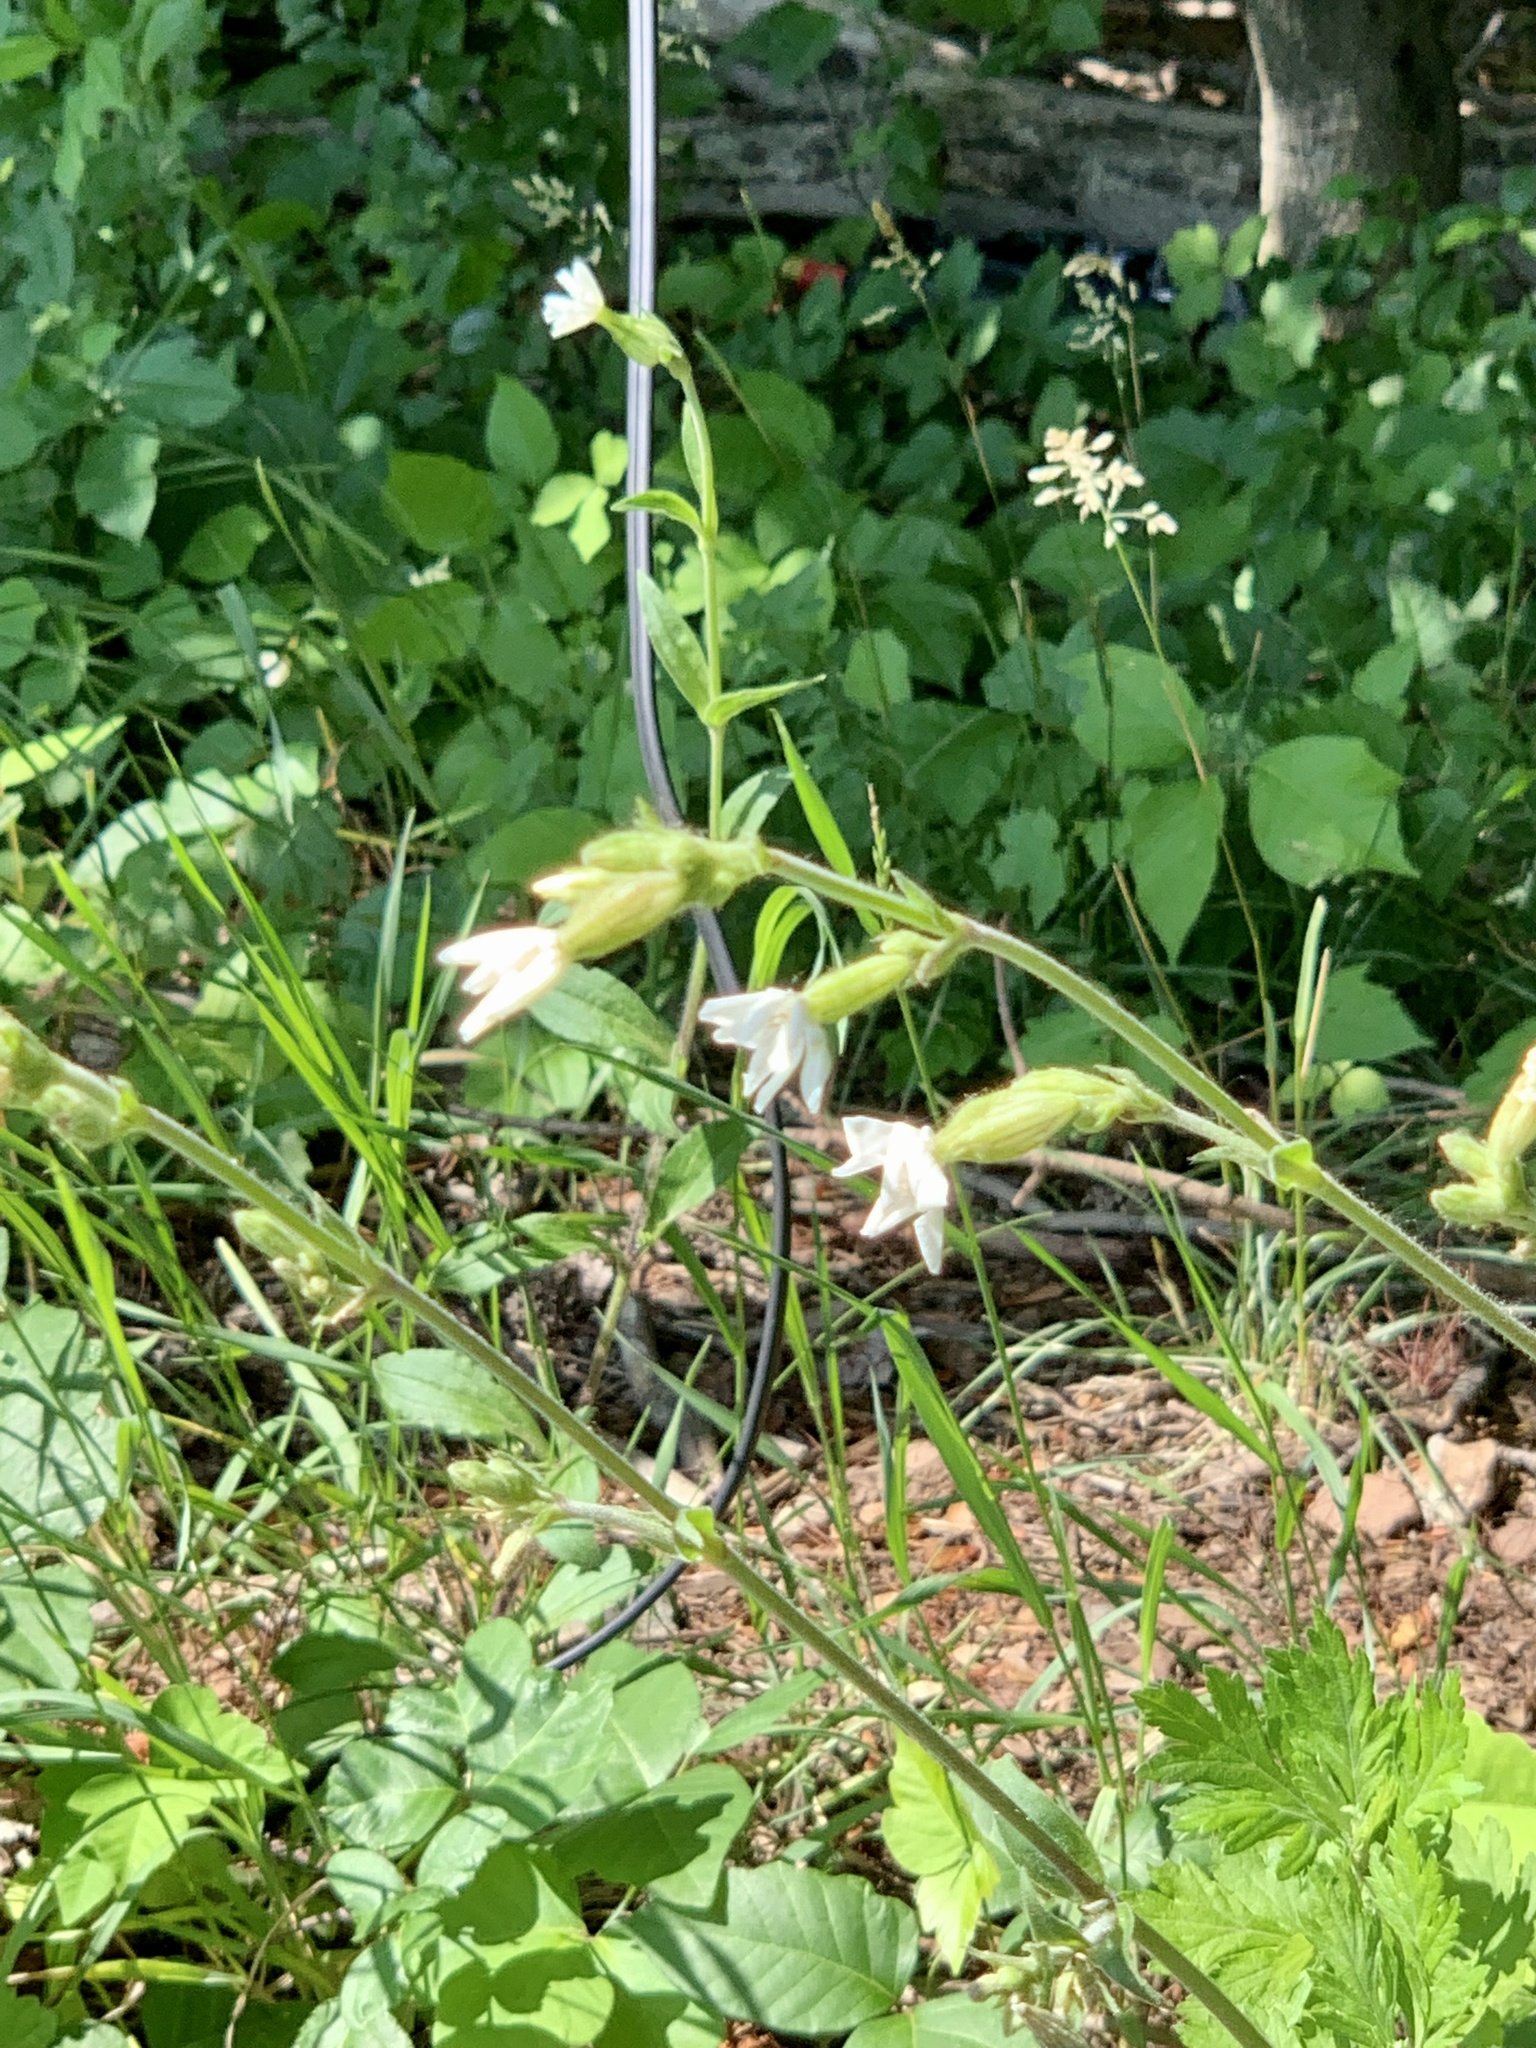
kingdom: Plantae
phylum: Tracheophyta
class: Magnoliopsida
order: Caryophyllales
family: Caryophyllaceae
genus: Silene
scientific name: Silene latifolia
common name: White campion
